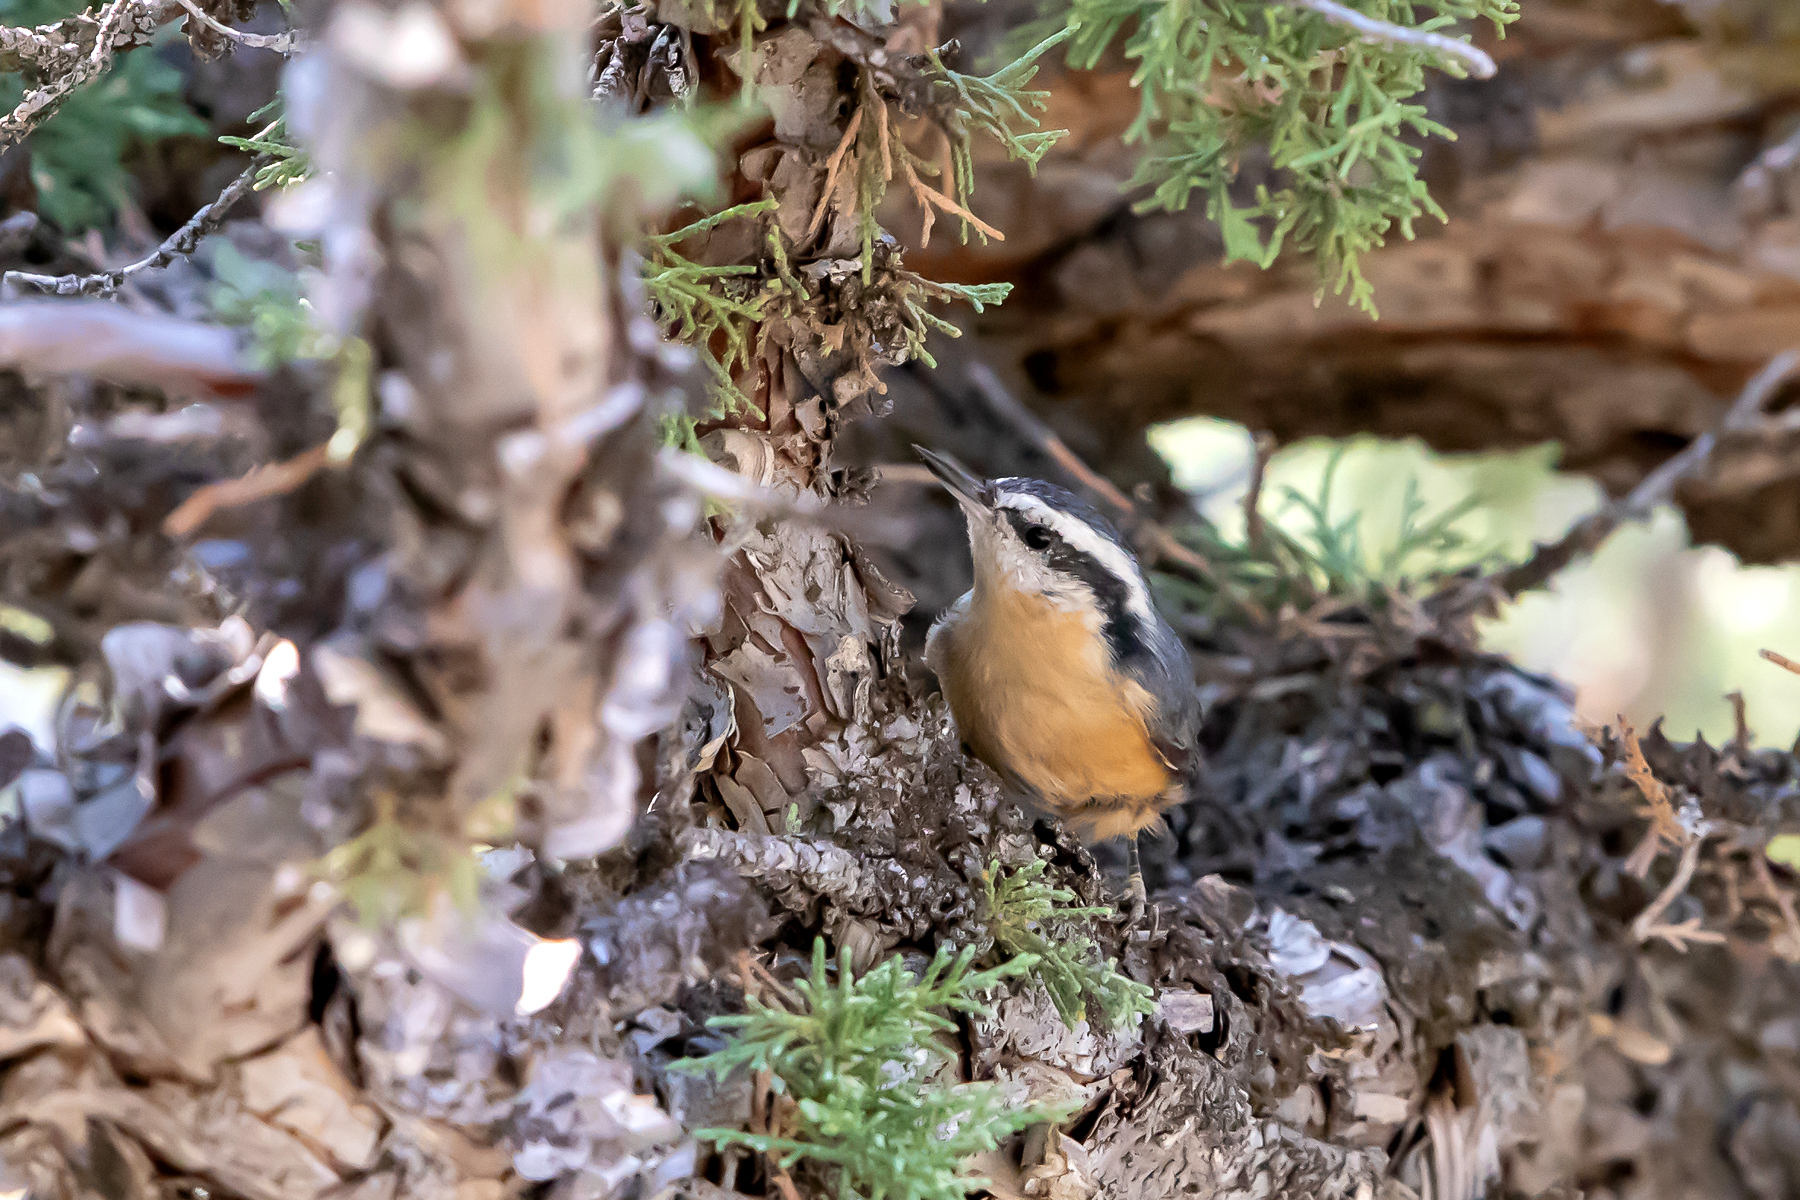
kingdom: Animalia
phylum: Chordata
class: Aves
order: Passeriformes
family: Sittidae
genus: Sitta
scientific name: Sitta canadensis
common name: Red-breasted nuthatch
